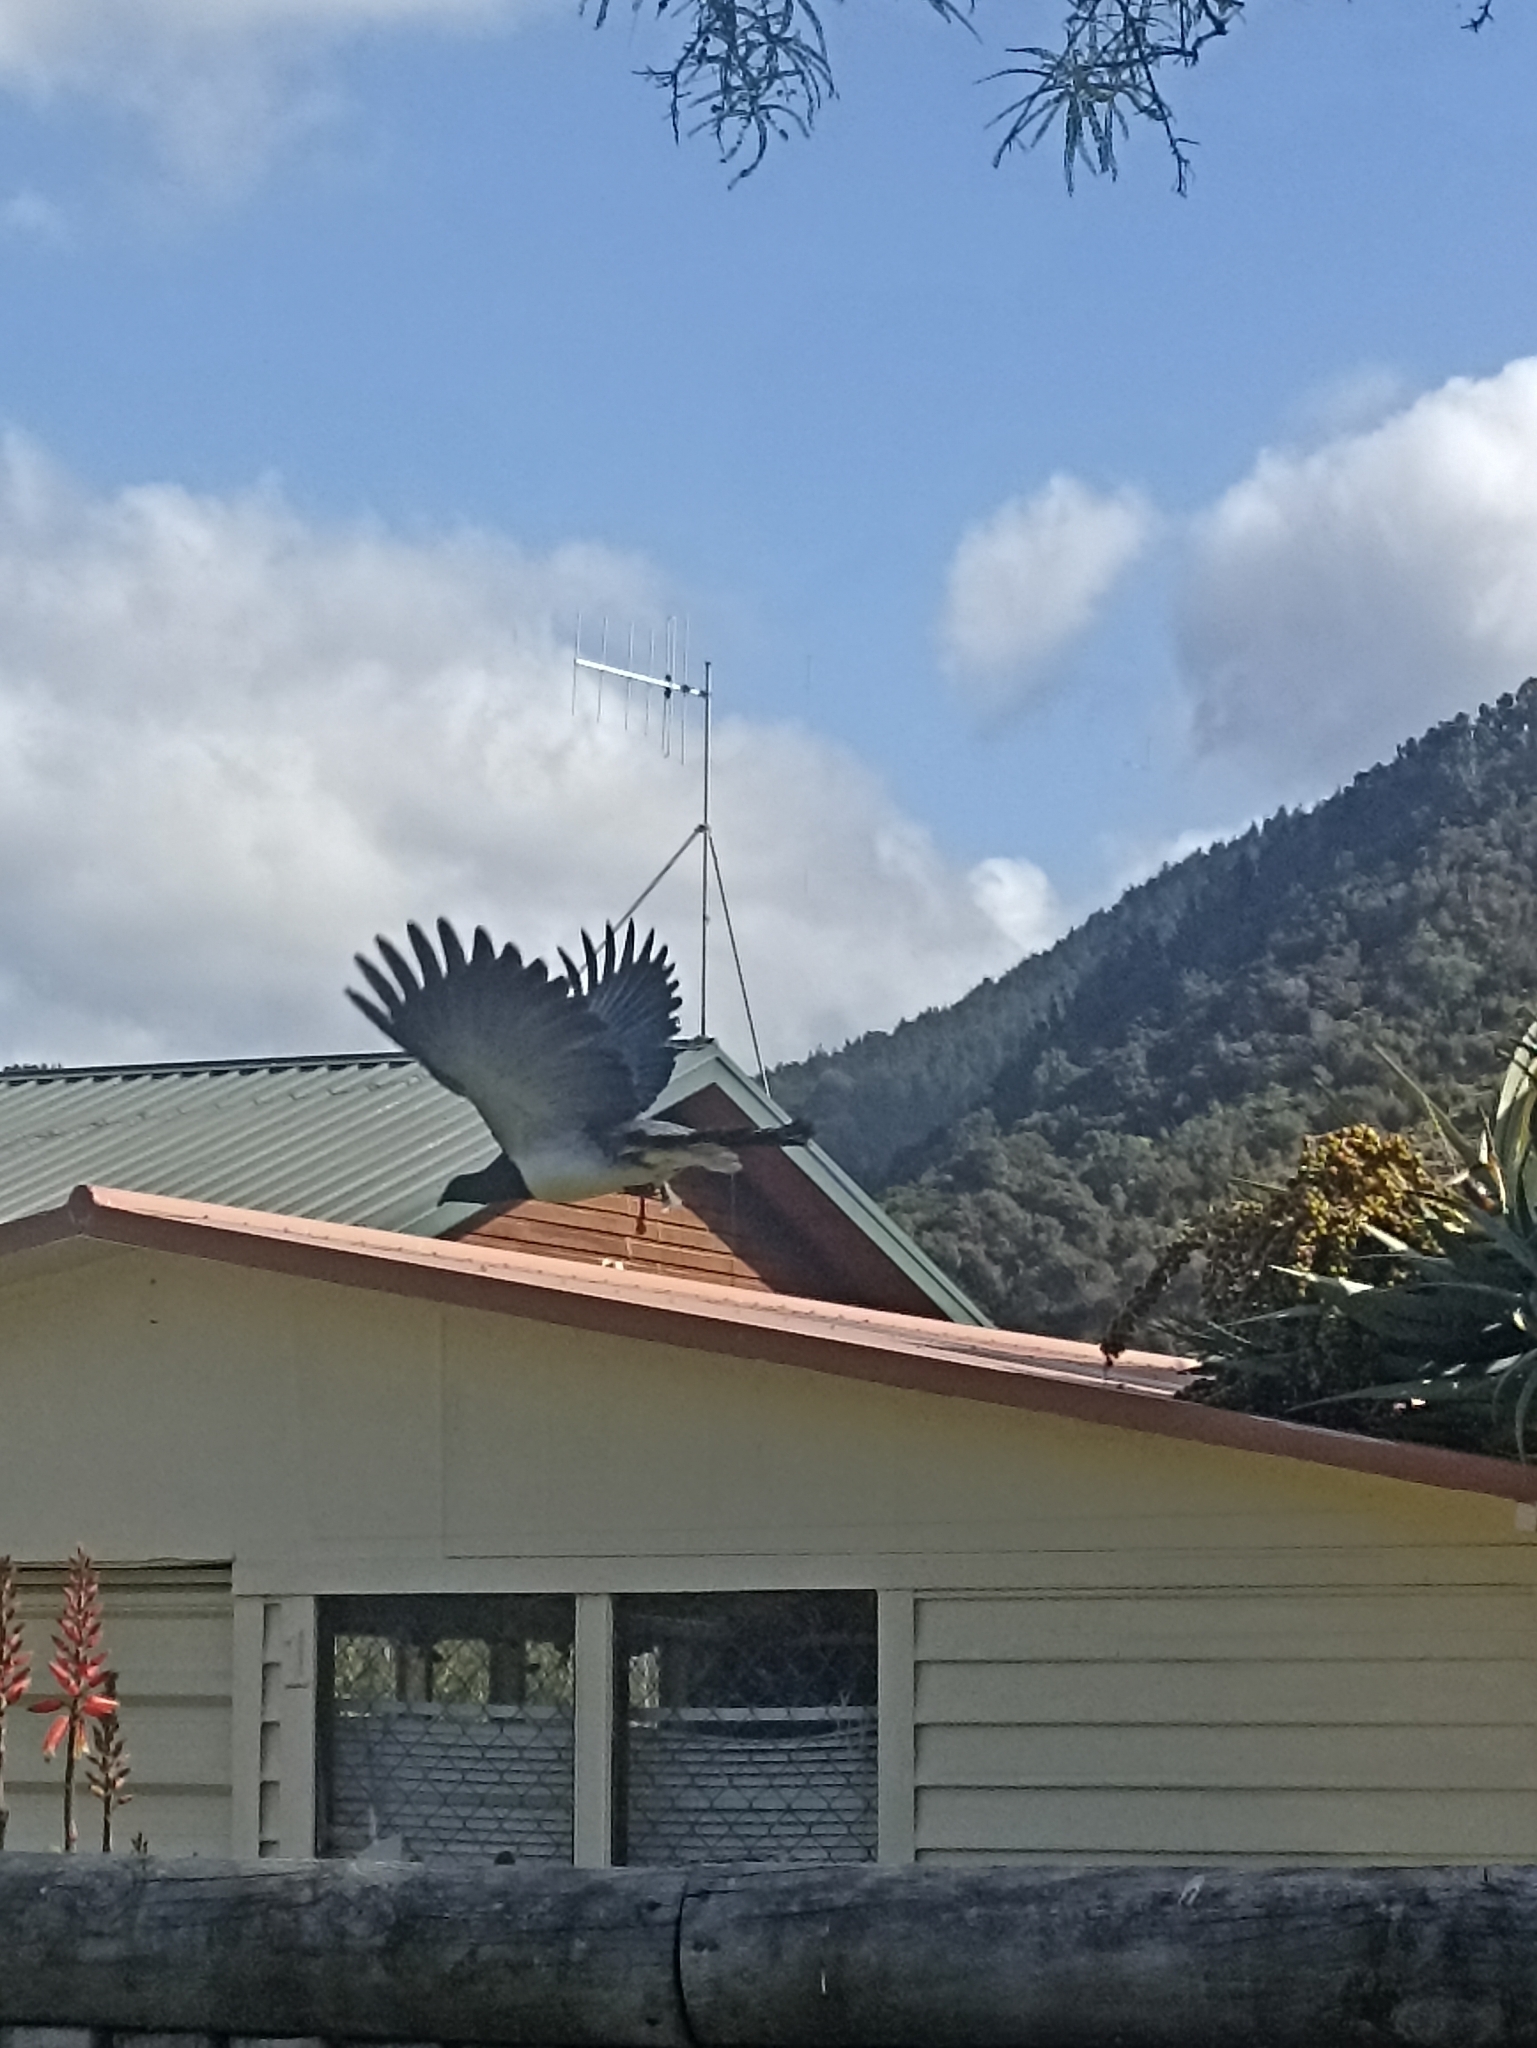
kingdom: Animalia
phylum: Chordata
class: Aves
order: Columbiformes
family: Columbidae
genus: Hemiphaga
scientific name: Hemiphaga novaeseelandiae
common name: New zealand pigeon
